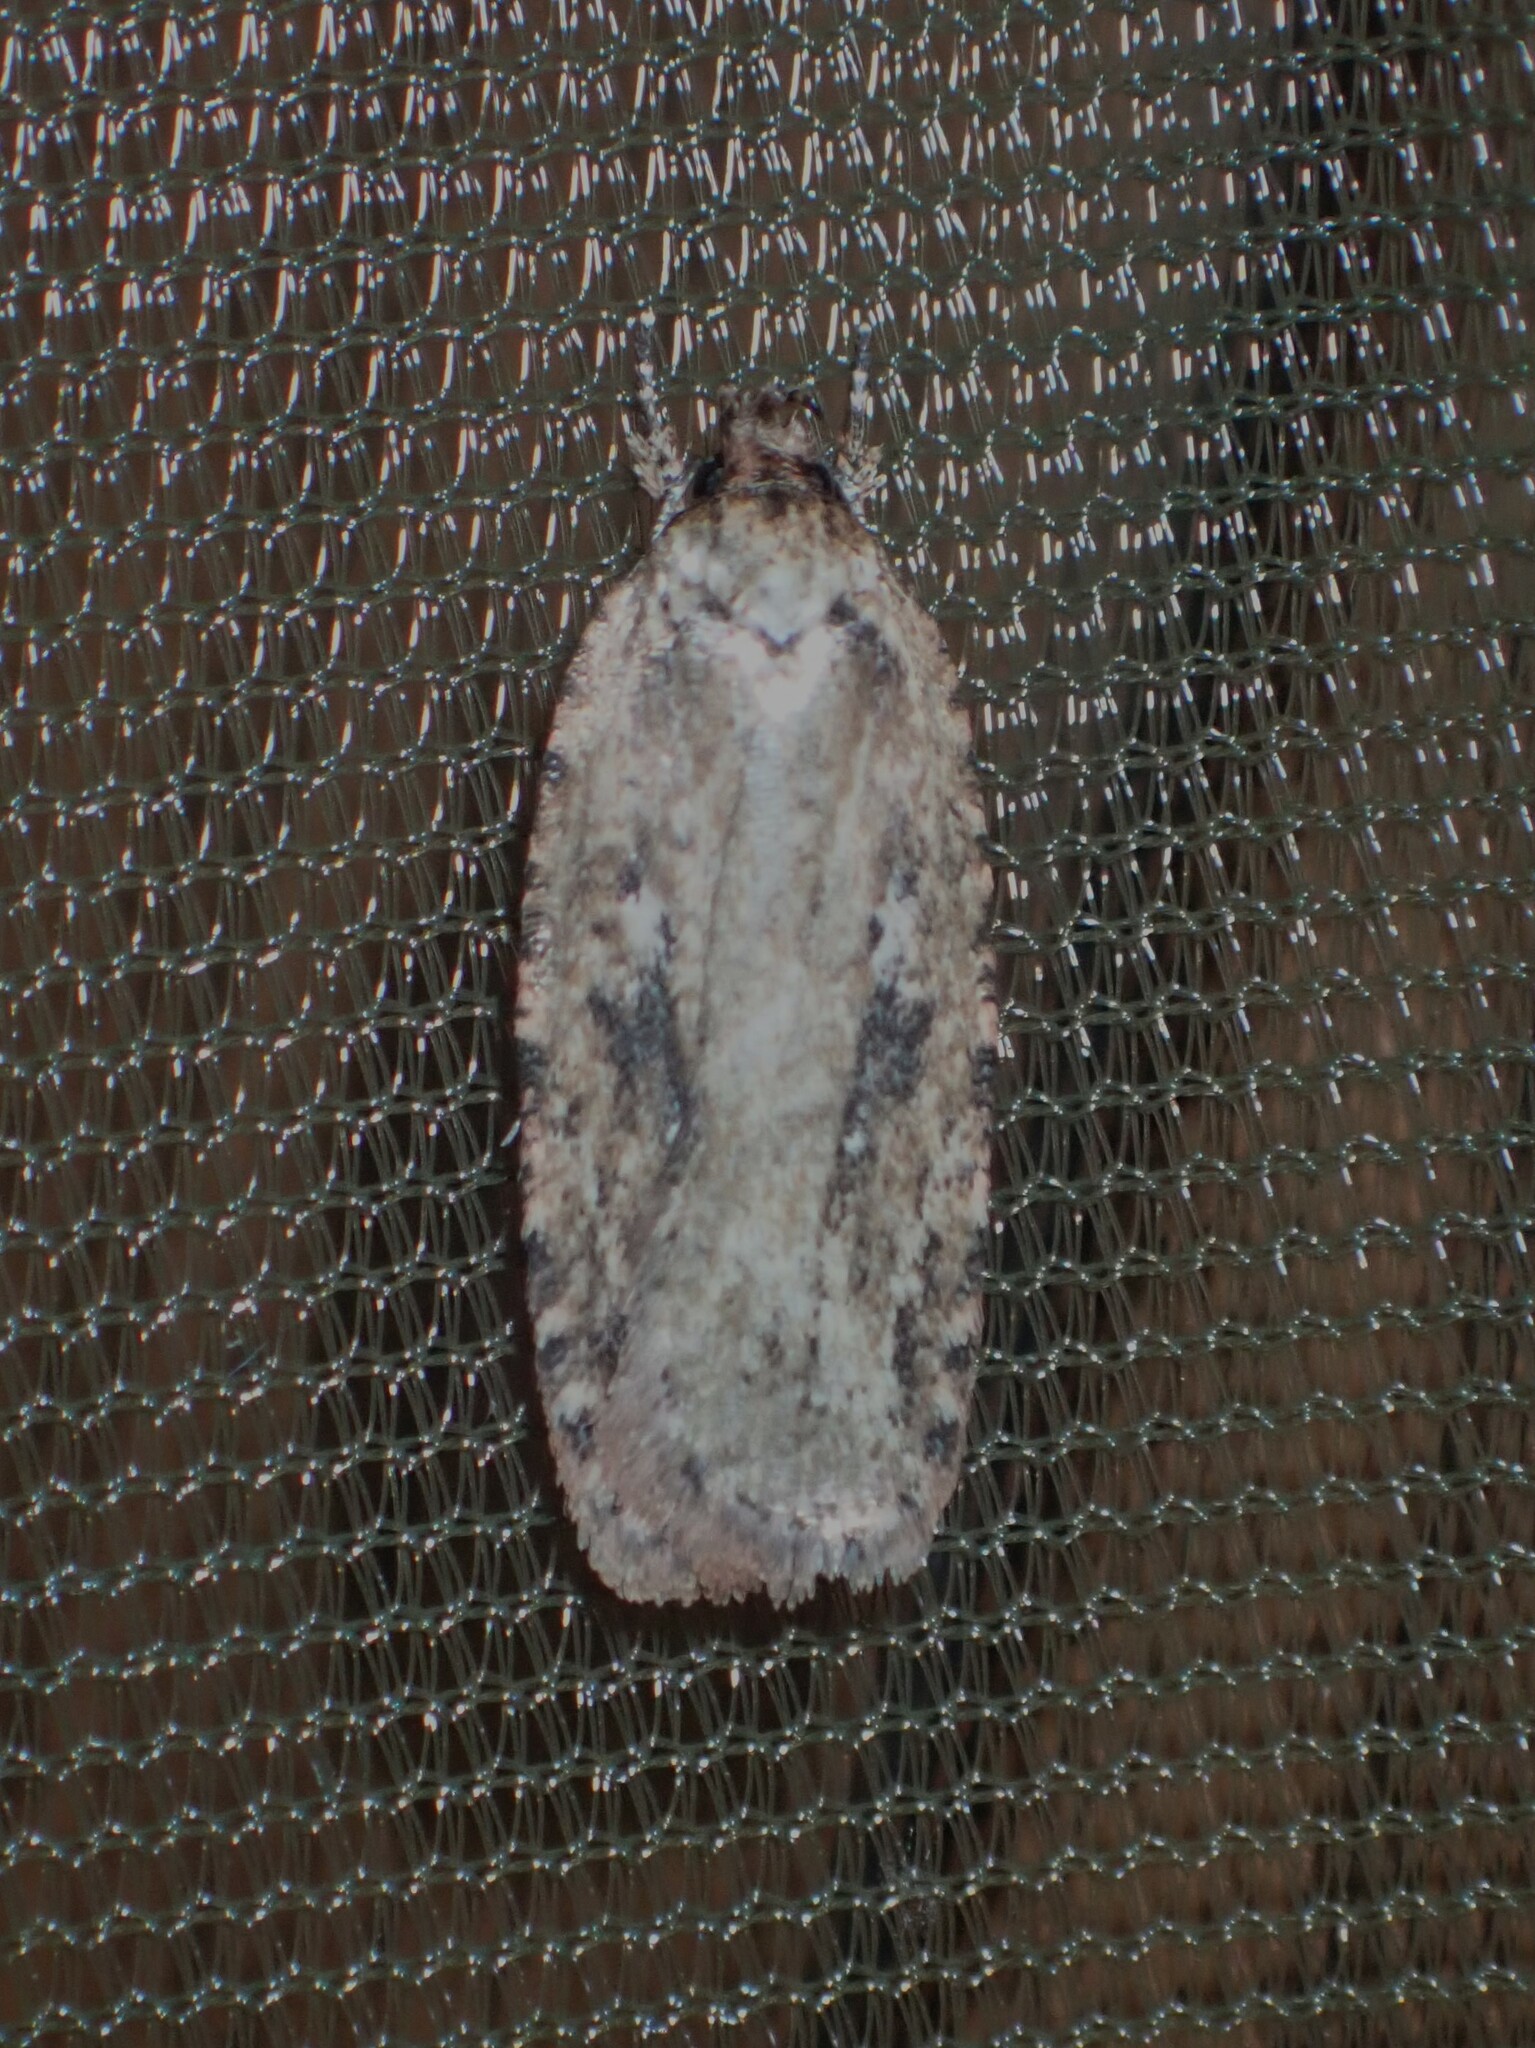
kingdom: Animalia
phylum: Arthropoda
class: Insecta
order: Lepidoptera
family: Depressariidae
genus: Agonopterix
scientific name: Agonopterix pulvipennella
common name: Goldenrod leafffolder
